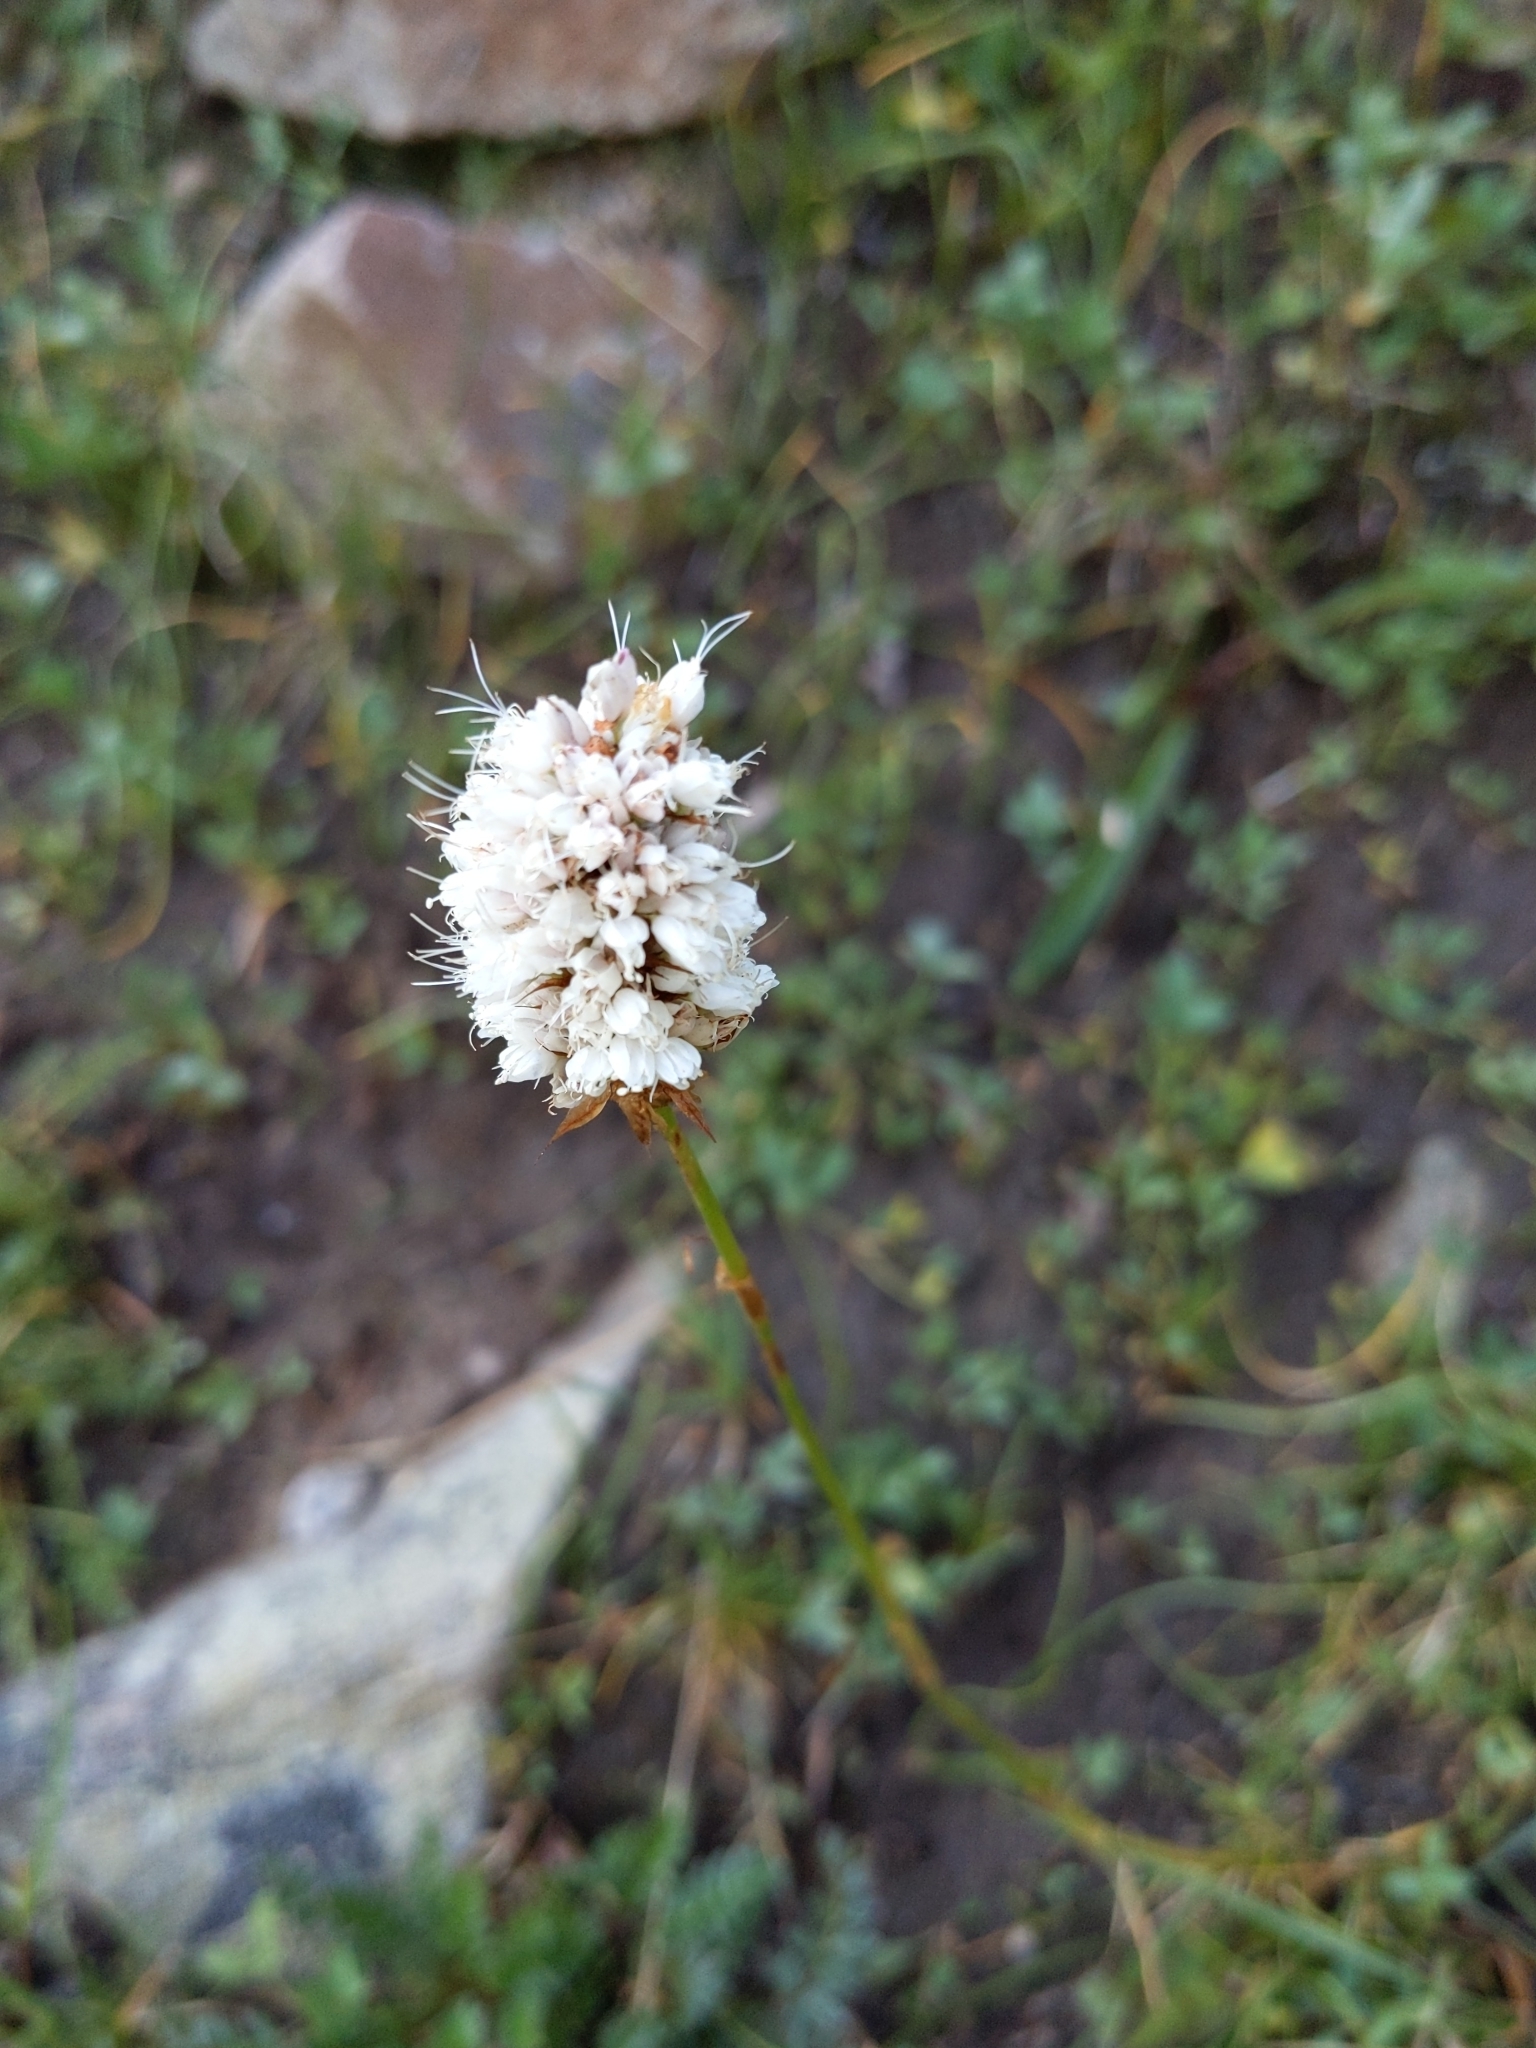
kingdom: Plantae
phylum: Tracheophyta
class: Magnoliopsida
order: Caryophyllales
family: Polygonaceae
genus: Bistorta
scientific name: Bistorta bistortoides
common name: American bistort
